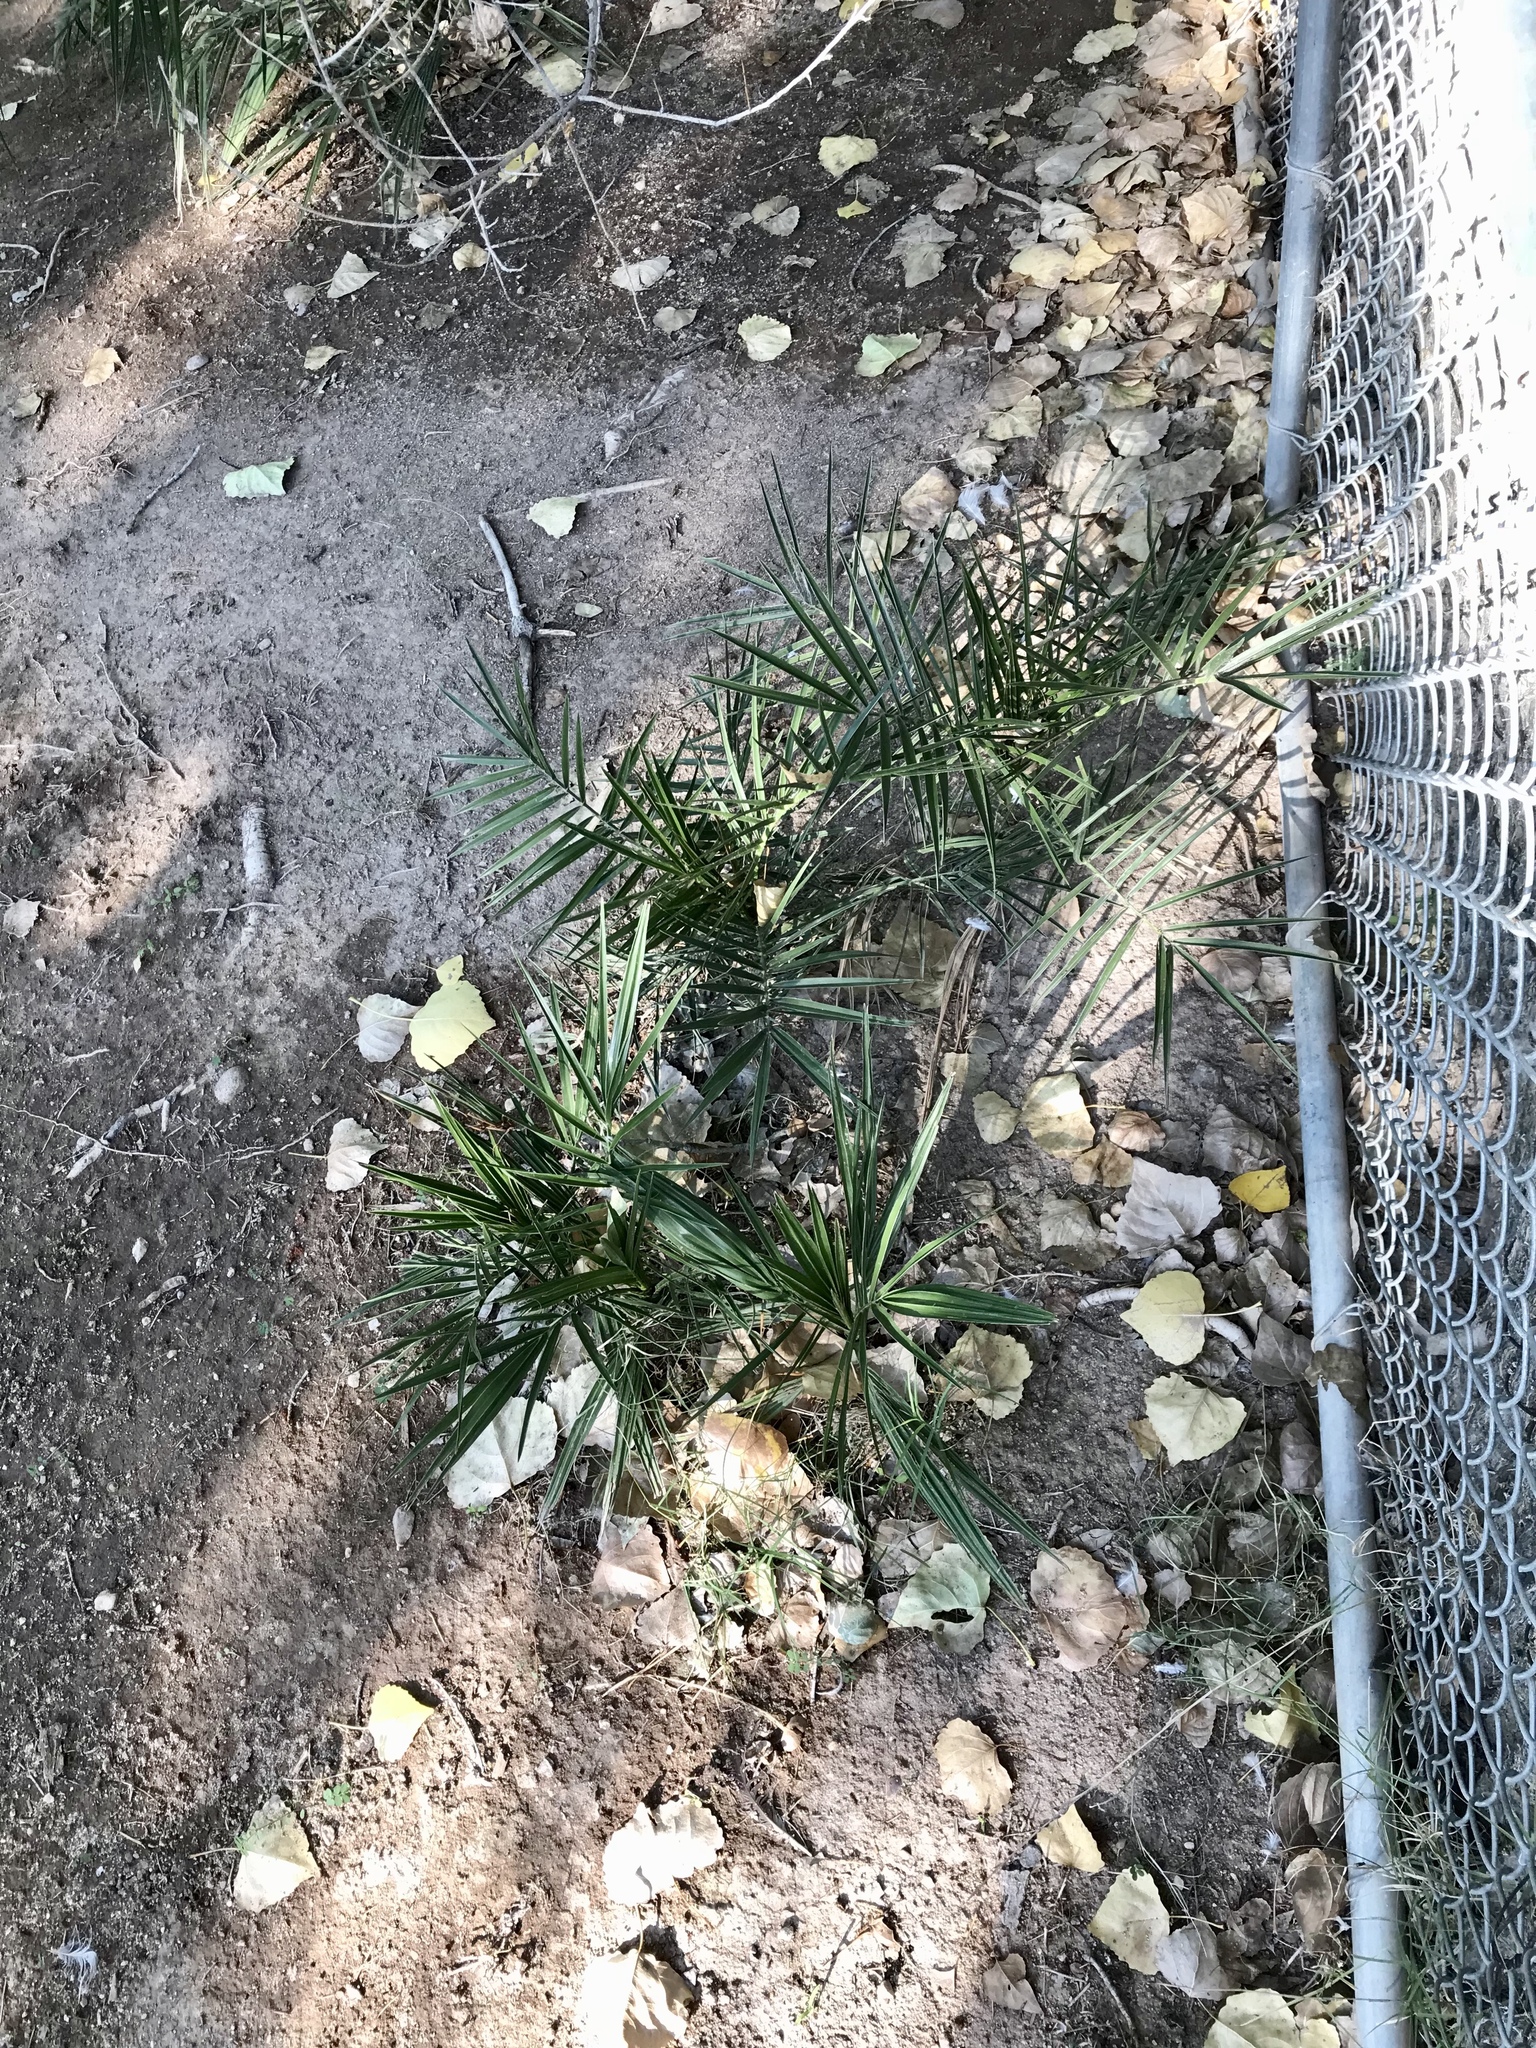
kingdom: Plantae
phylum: Tracheophyta
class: Liliopsida
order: Arecales
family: Arecaceae
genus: Phoenix
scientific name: Phoenix canariensis
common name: Canary island date palm
